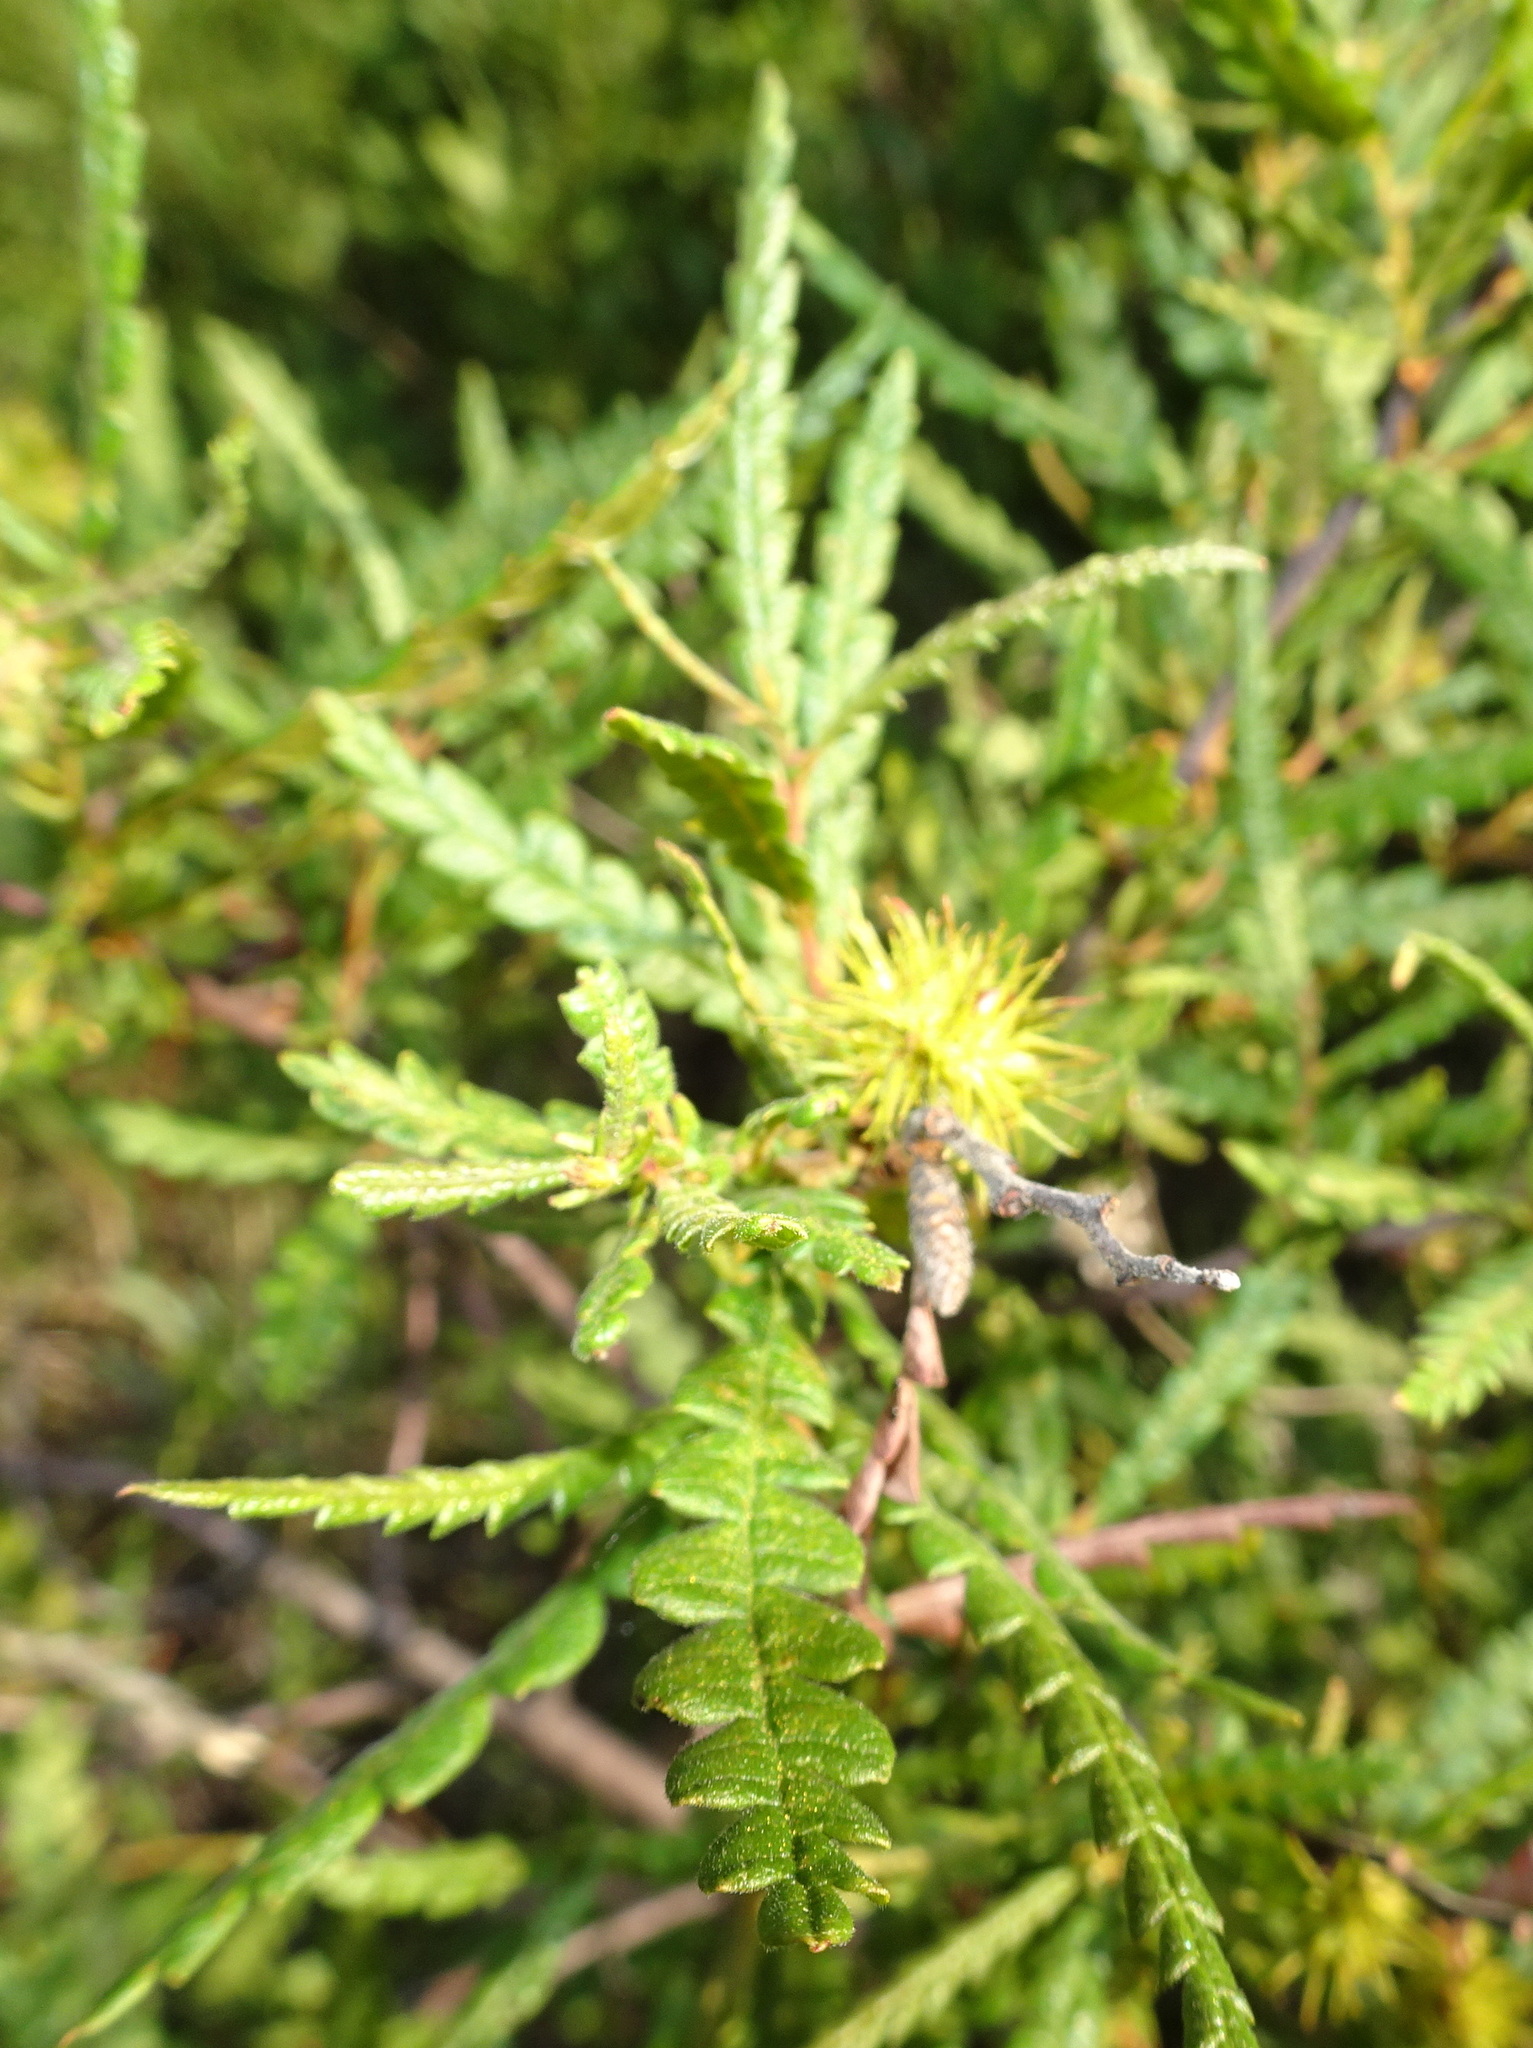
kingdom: Plantae
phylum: Tracheophyta
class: Magnoliopsida
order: Fagales
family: Myricaceae
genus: Comptonia
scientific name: Comptonia peregrina
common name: Sweet-fern
